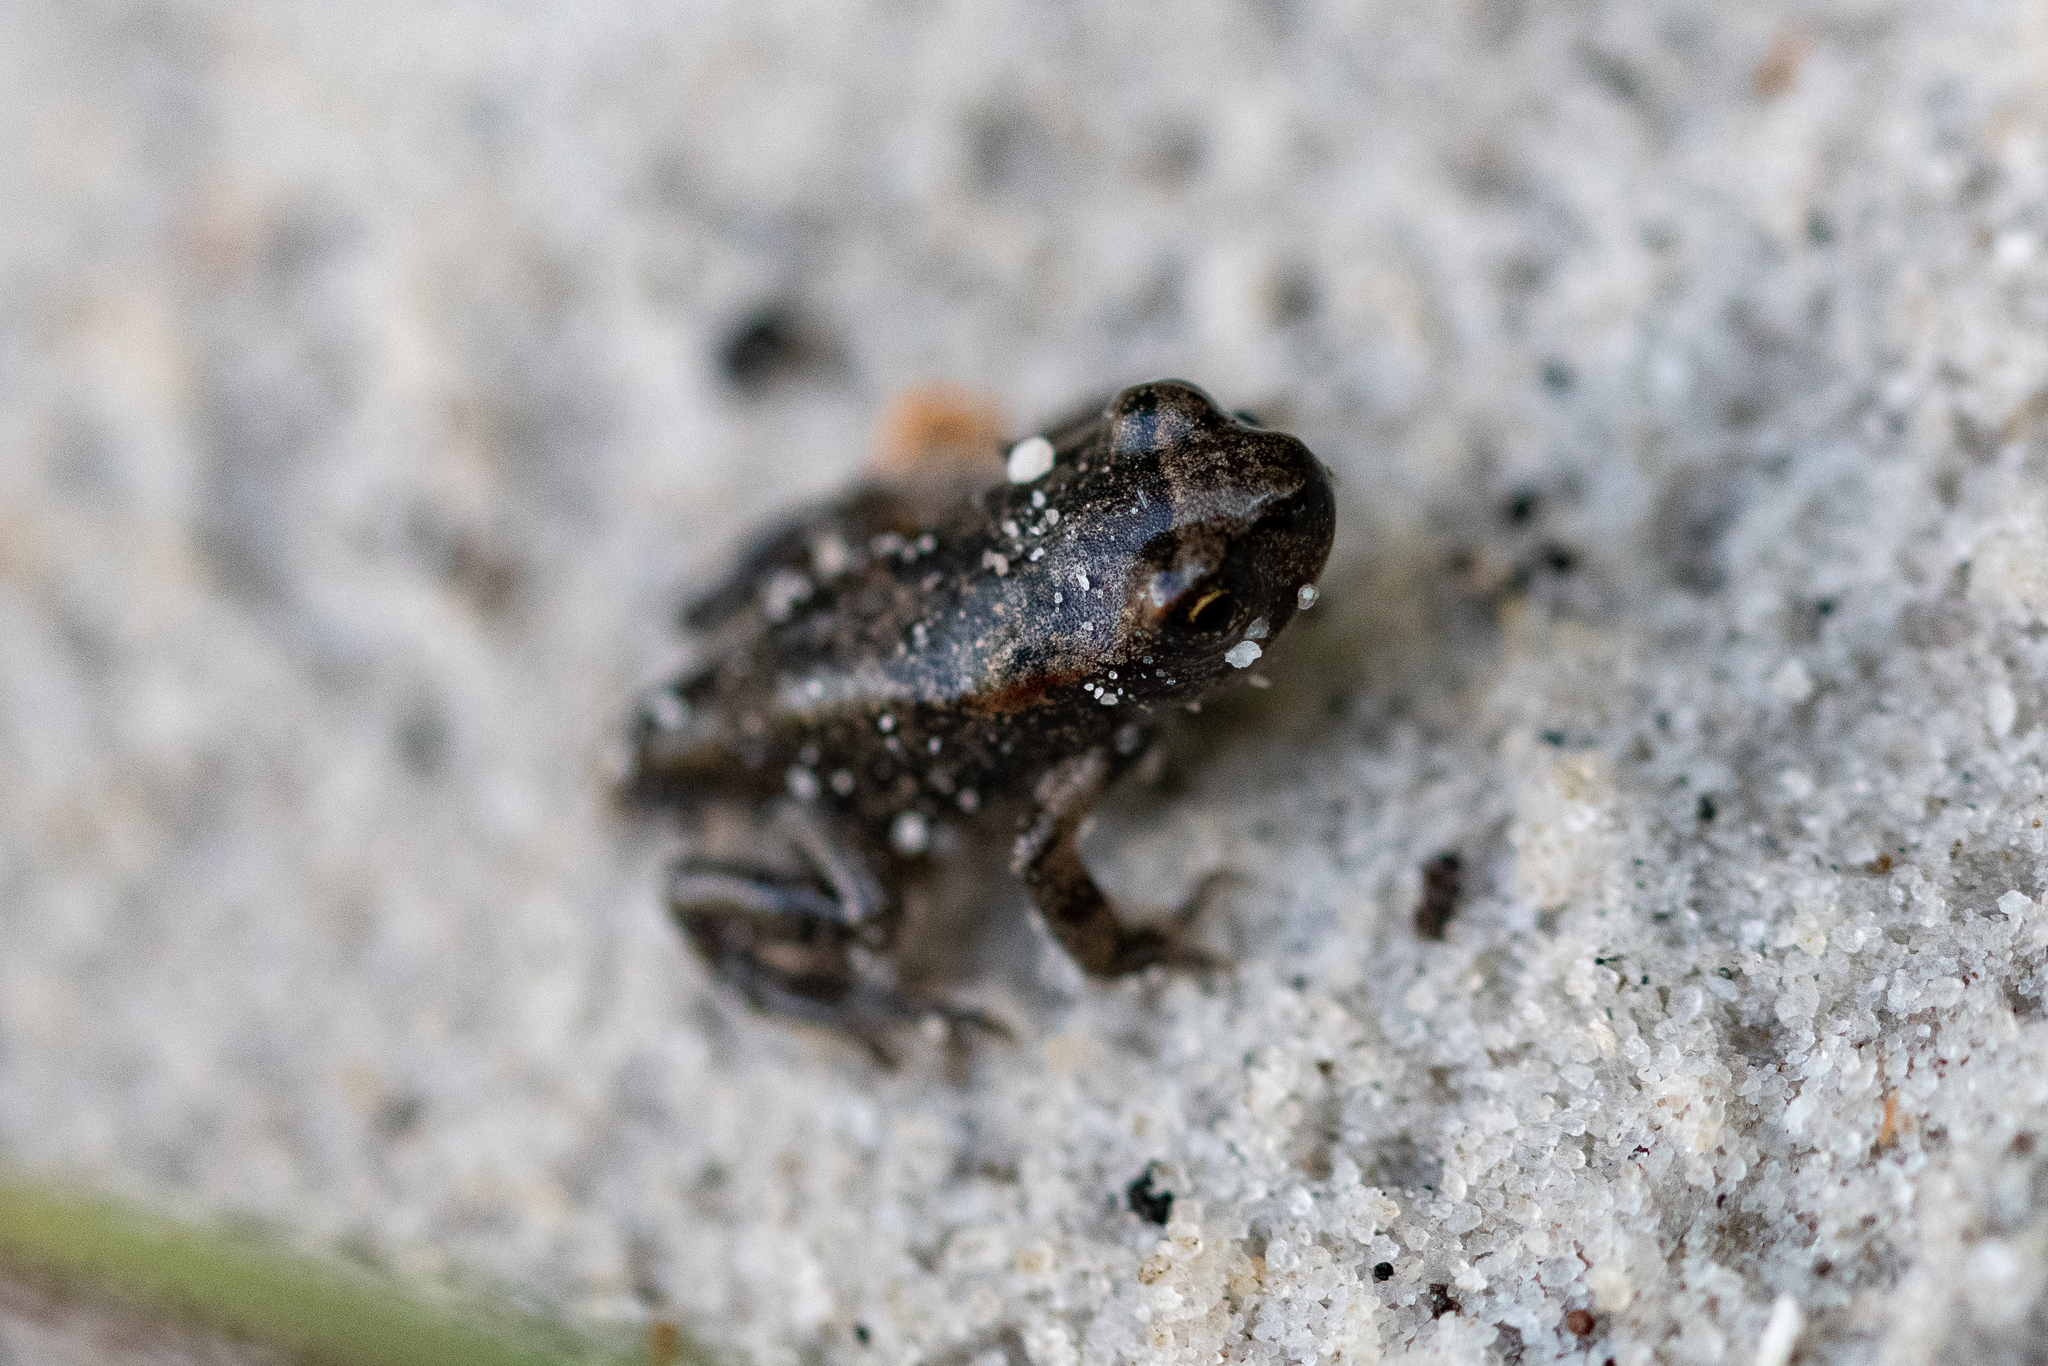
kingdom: Animalia
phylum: Chordata
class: Amphibia
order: Anura
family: Bufonidae
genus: Sclerophrys
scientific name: Sclerophrys capensis
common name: Ranger’s toad
